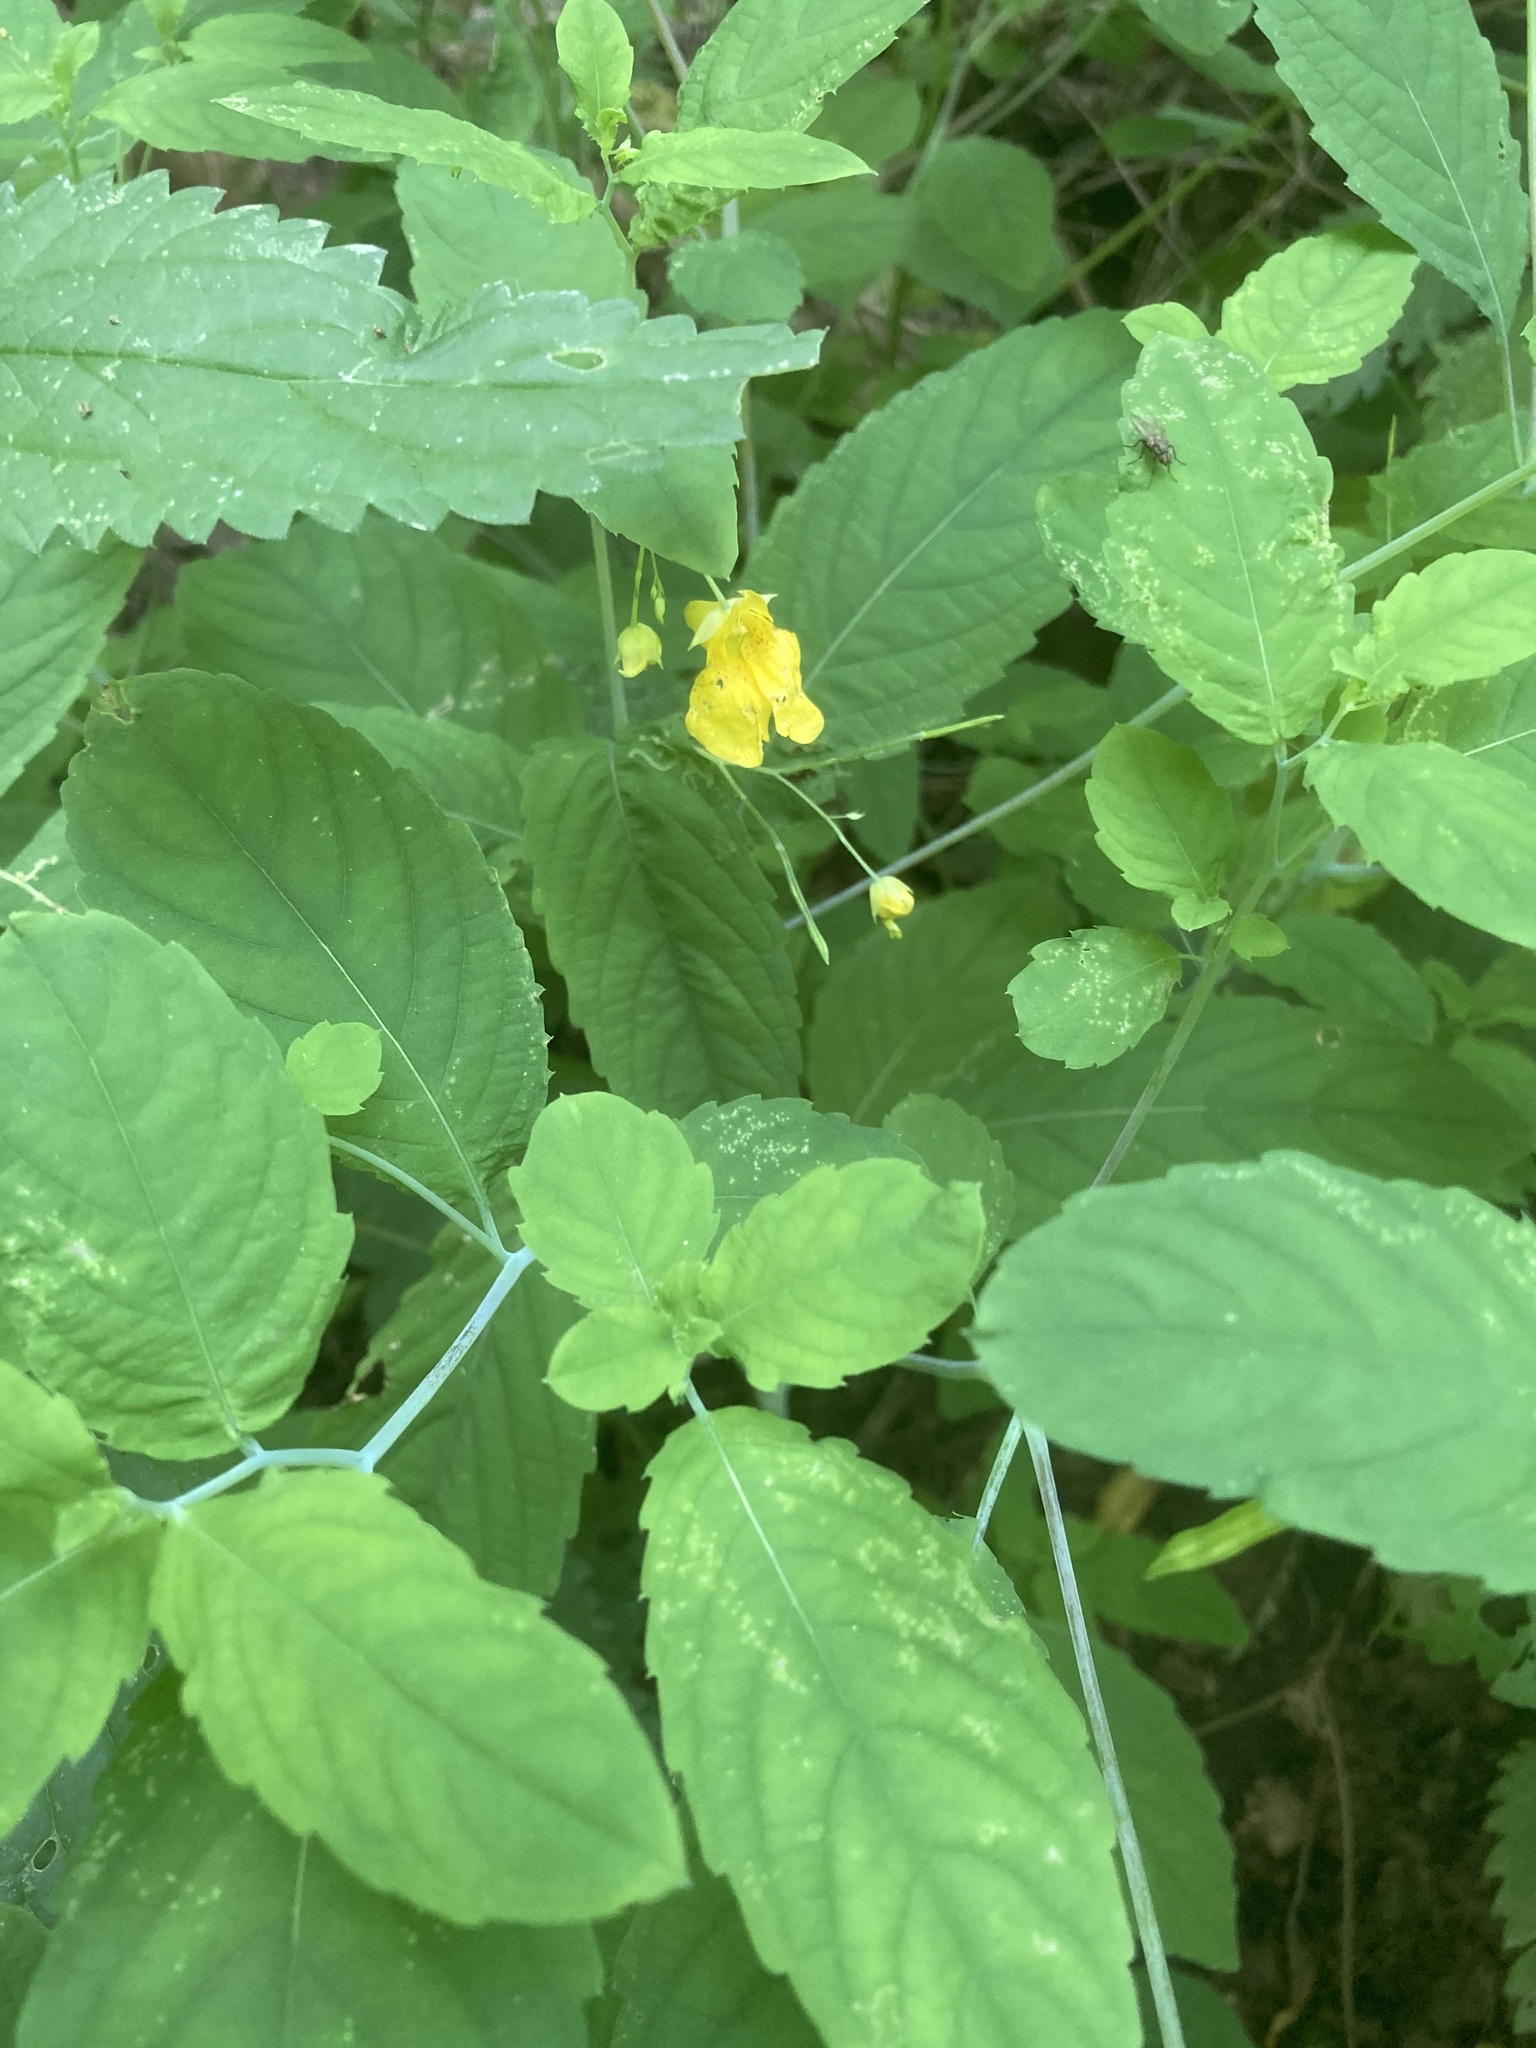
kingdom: Plantae
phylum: Tracheophyta
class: Magnoliopsida
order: Ericales
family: Balsaminaceae
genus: Impatiens
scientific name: Impatiens noli-tangere
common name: Touch-me-not balsam
